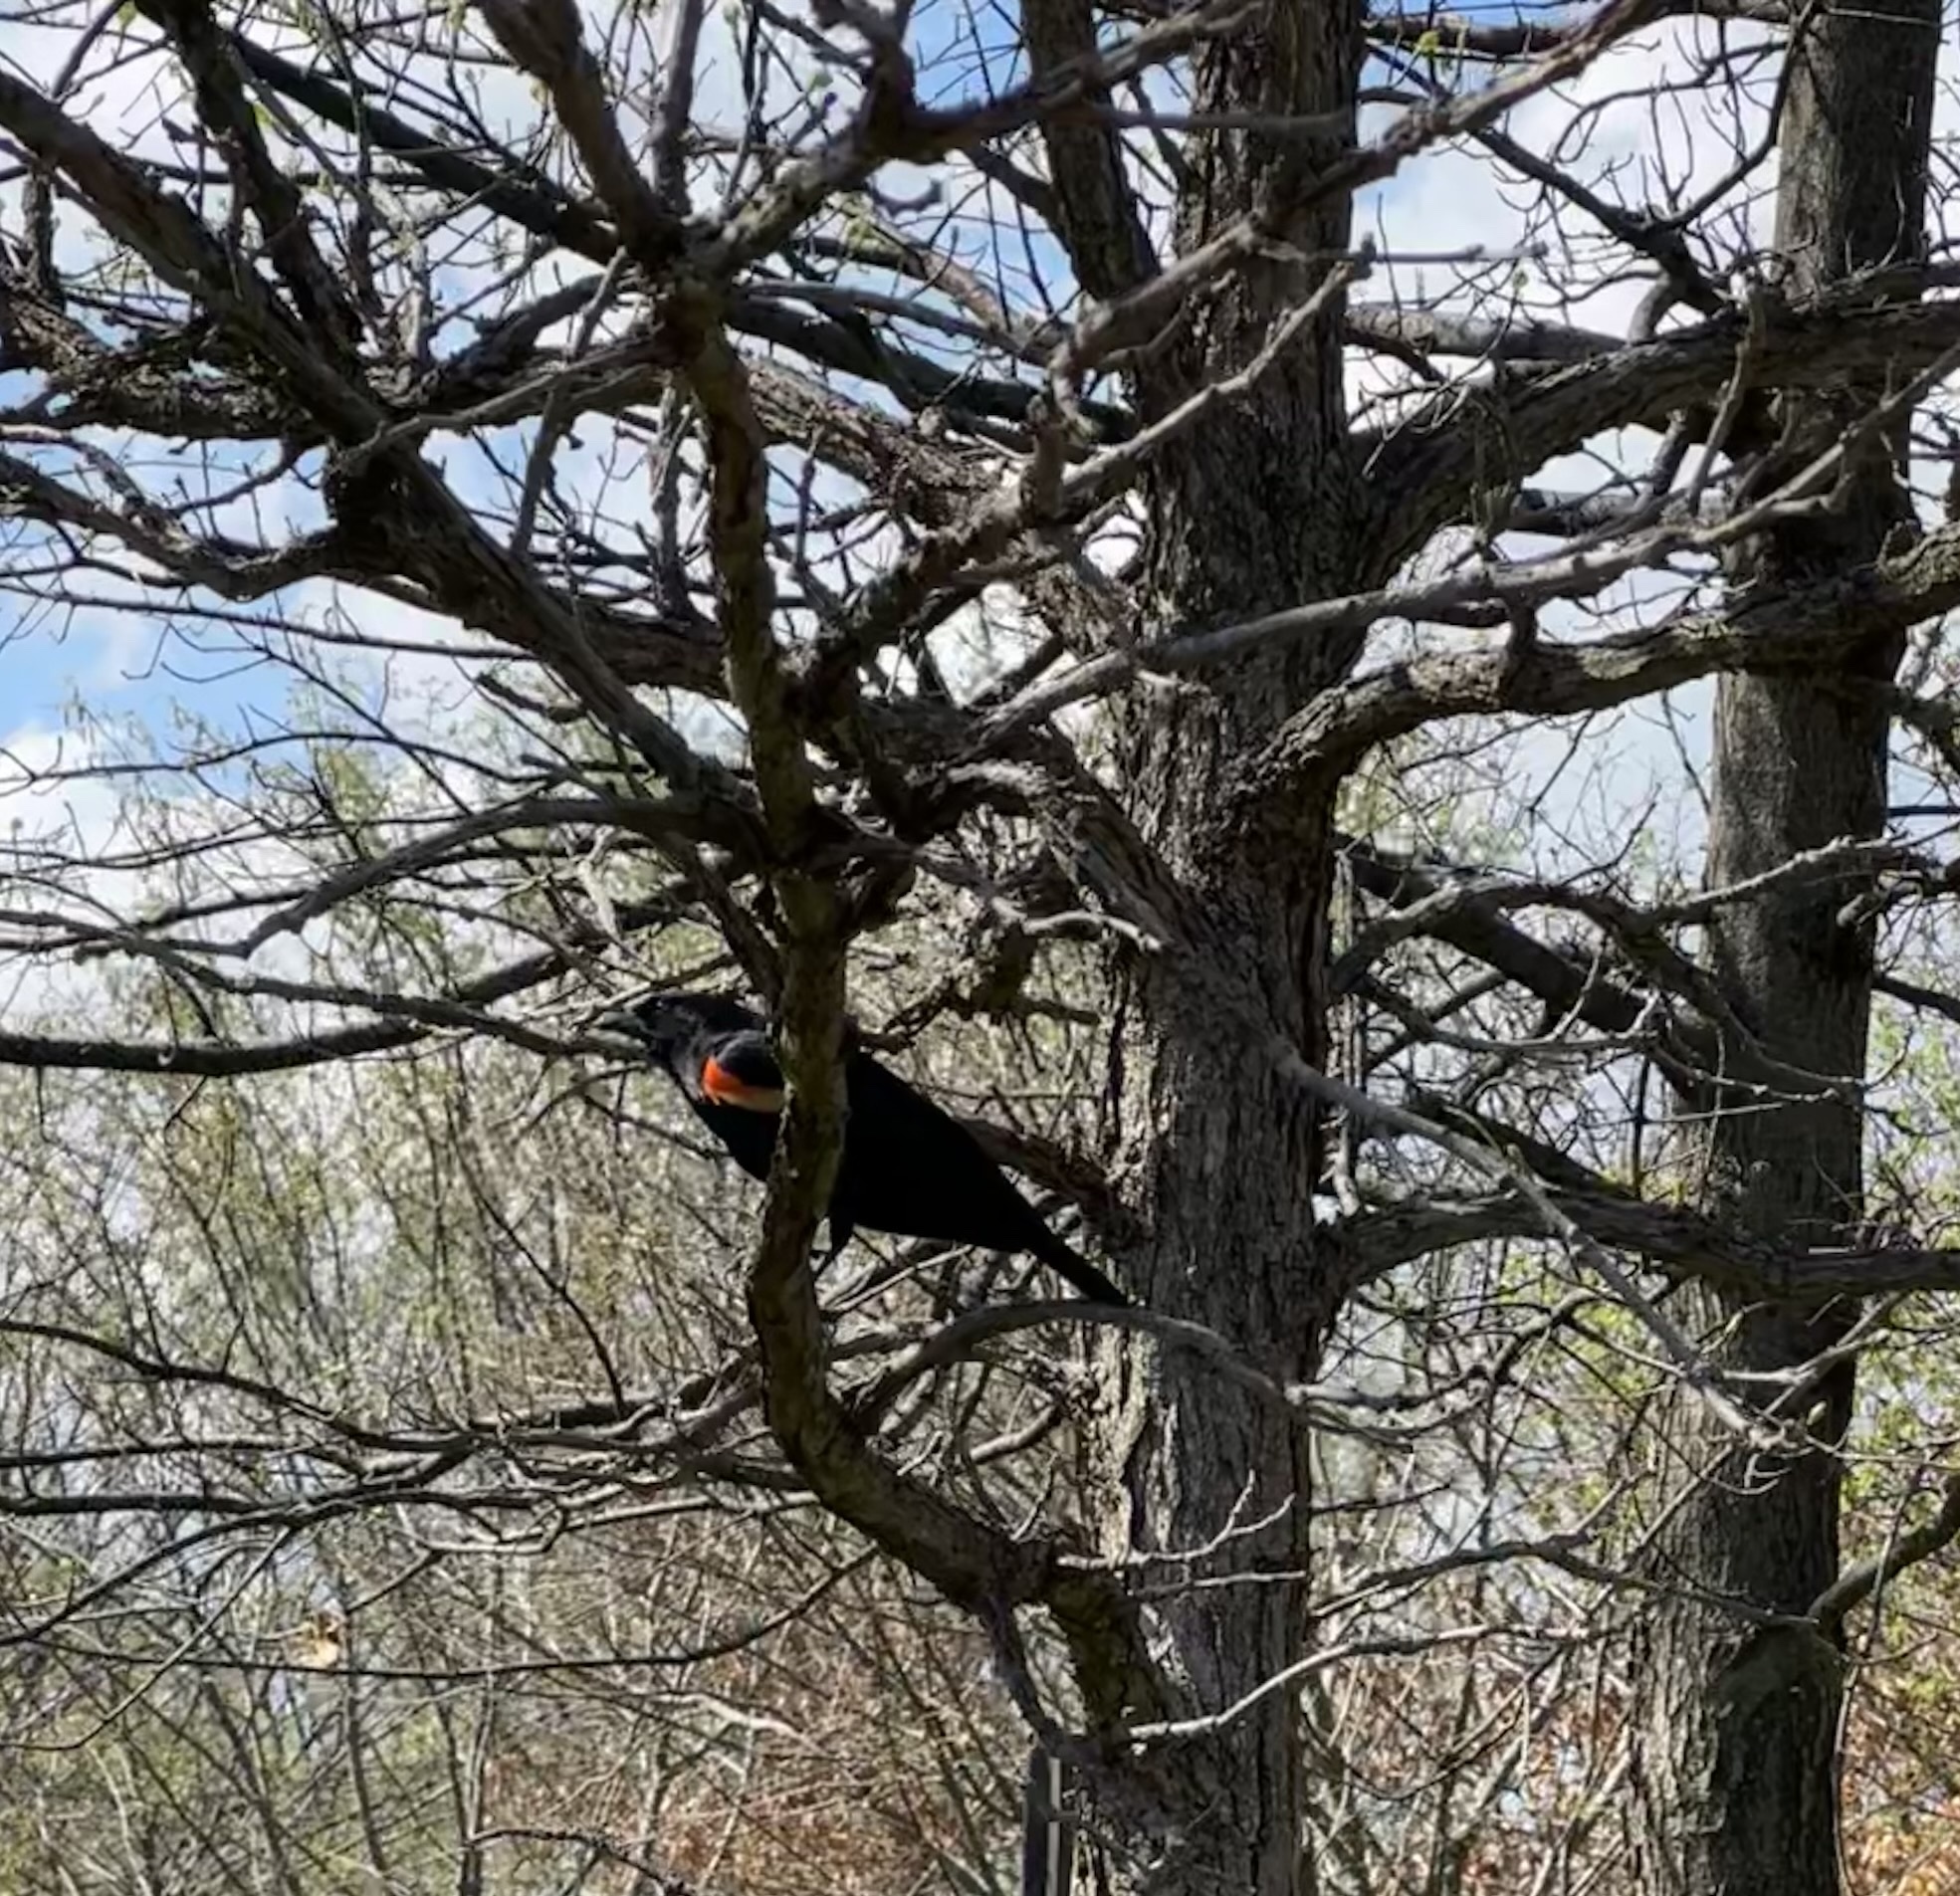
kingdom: Animalia
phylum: Chordata
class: Aves
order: Passeriformes
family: Icteridae
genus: Agelaius
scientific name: Agelaius phoeniceus
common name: Red-winged blackbird
